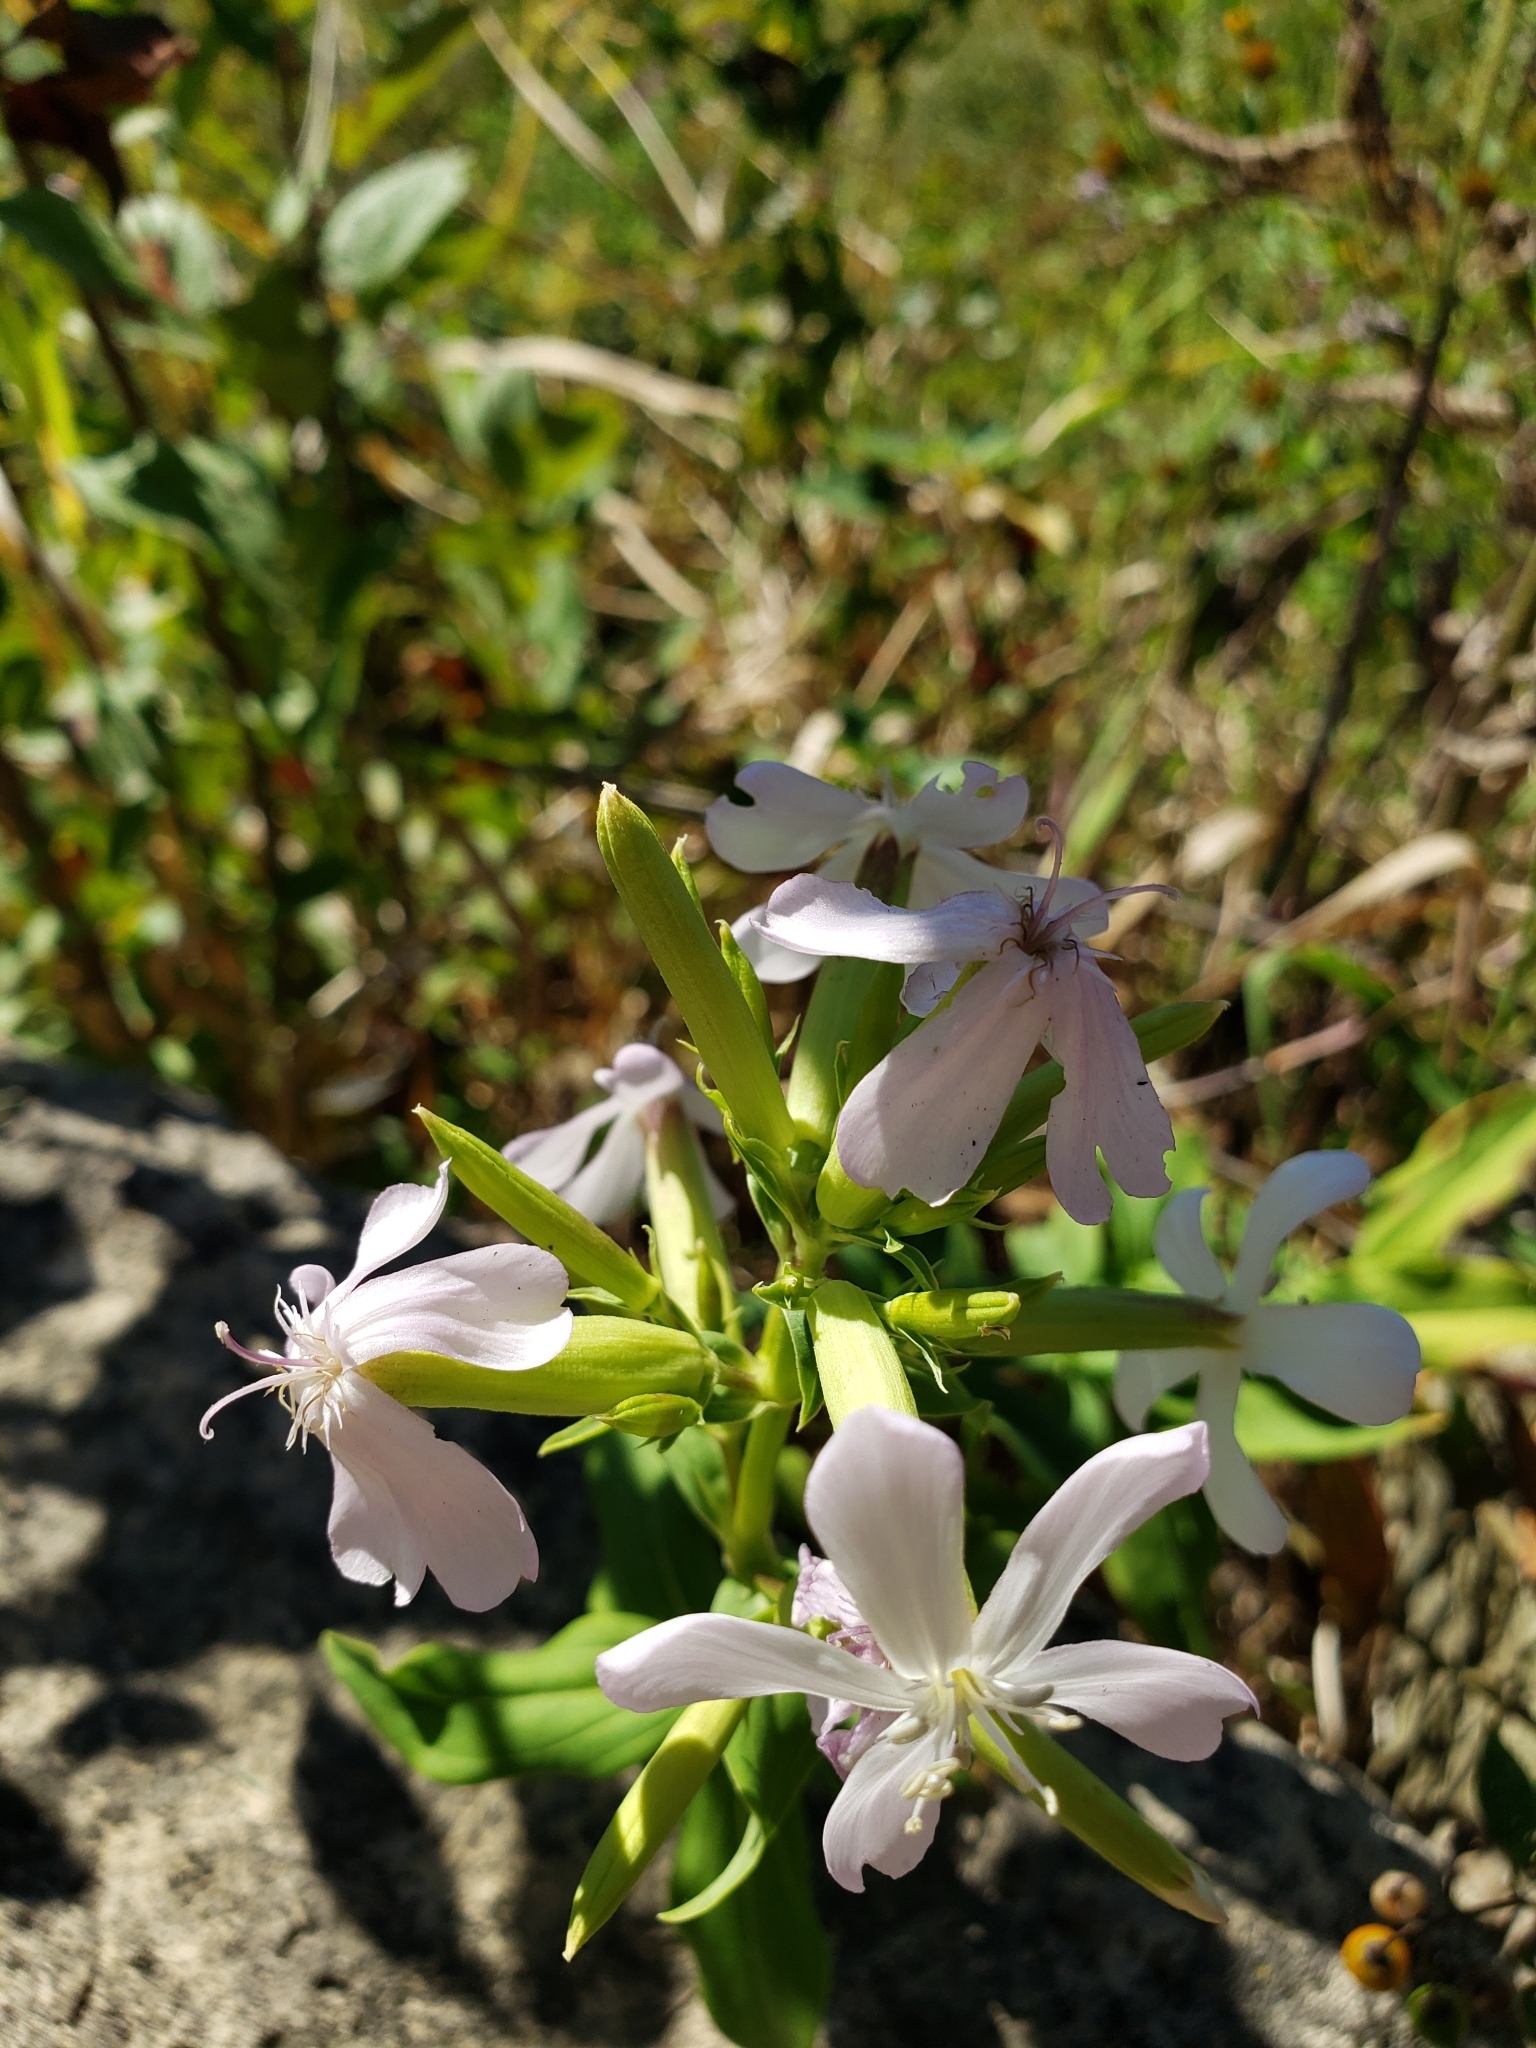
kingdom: Plantae
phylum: Tracheophyta
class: Magnoliopsida
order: Caryophyllales
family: Caryophyllaceae
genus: Saponaria
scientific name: Saponaria officinalis
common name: Soapwort
